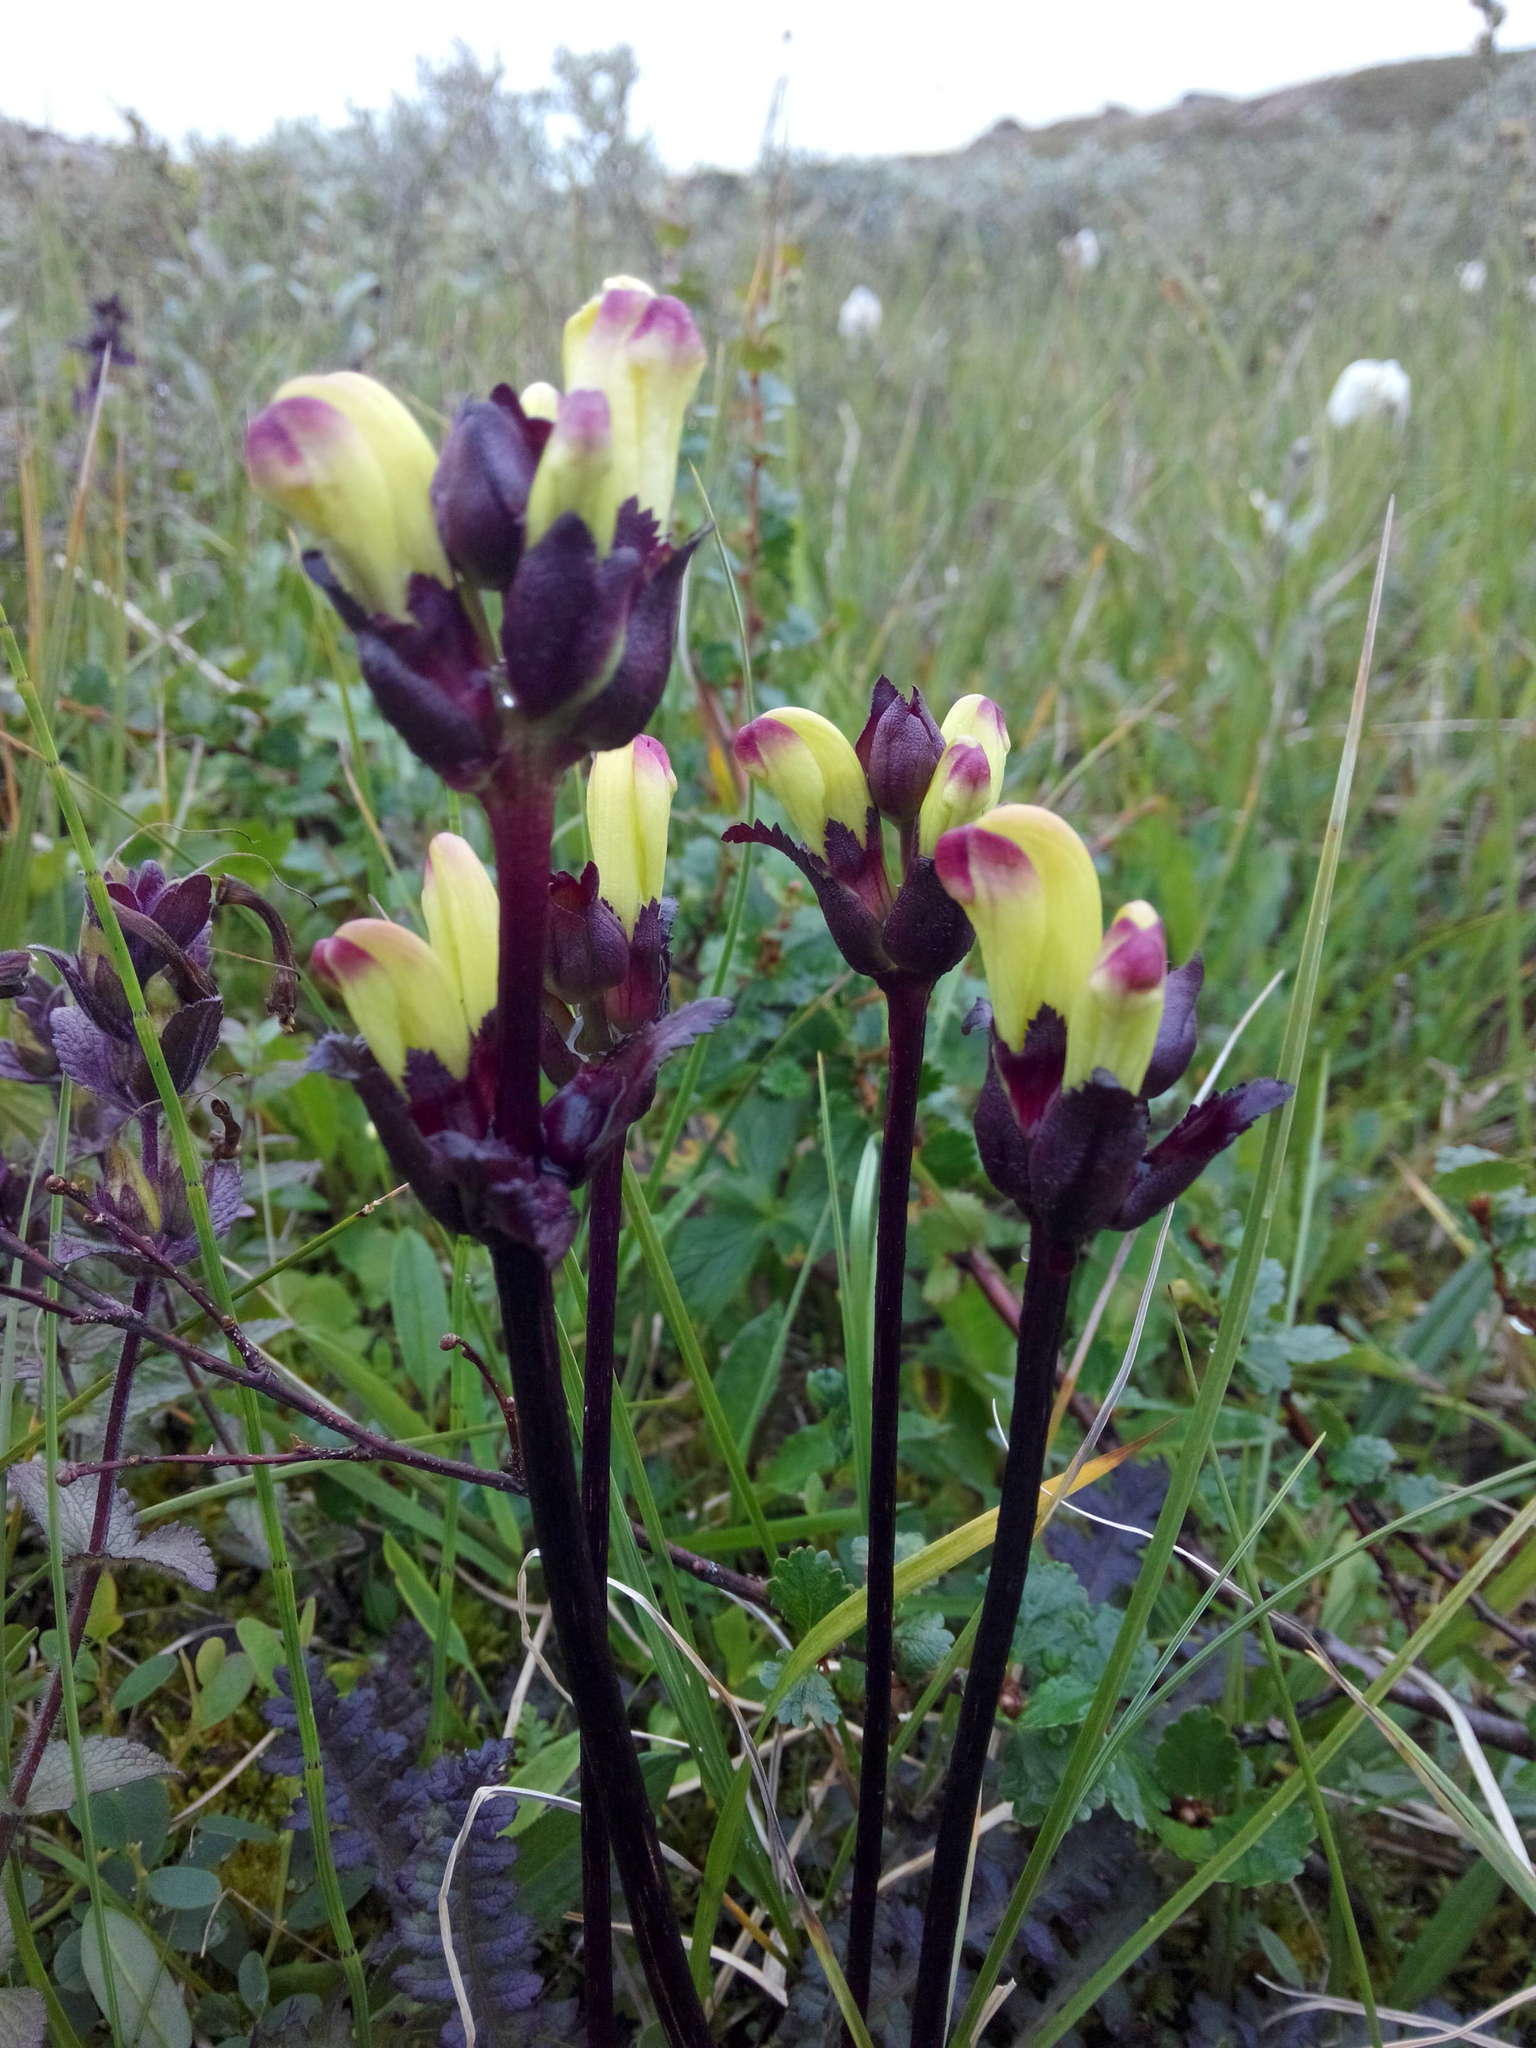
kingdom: Plantae
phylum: Tracheophyta
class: Magnoliopsida
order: Lamiales
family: Orobanchaceae
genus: Pedicularis
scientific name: Pedicularis sceptrum-carolinum
